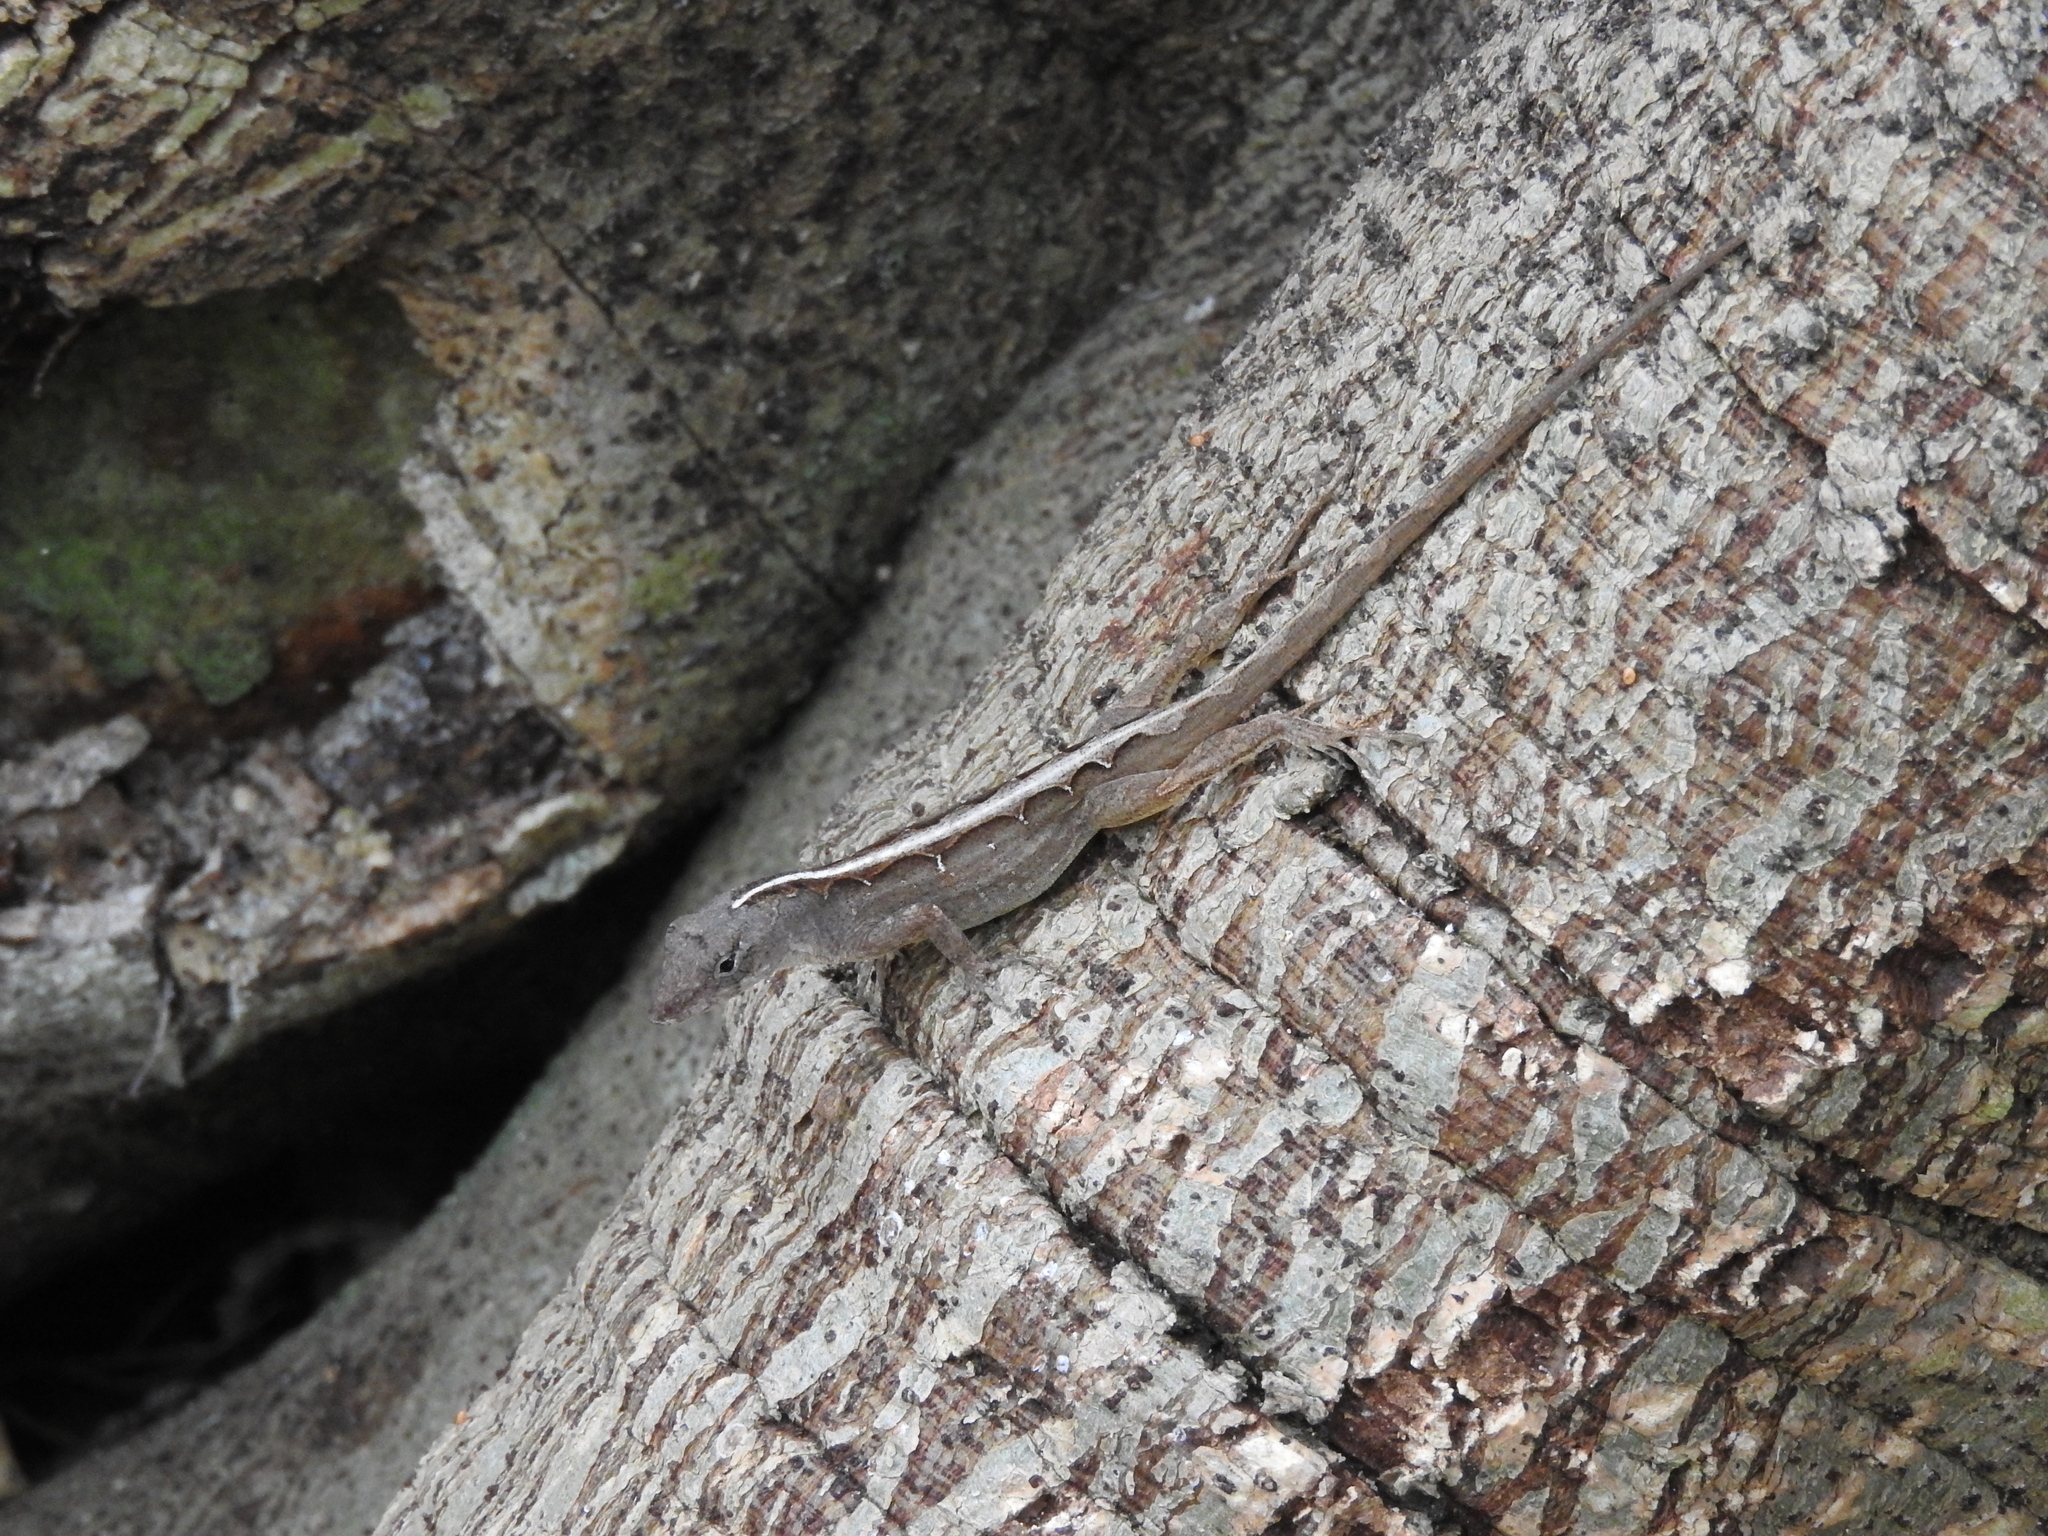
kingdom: Animalia
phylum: Chordata
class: Squamata
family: Dactyloidae
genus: Anolis
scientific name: Anolis sagrei
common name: Brown anole
